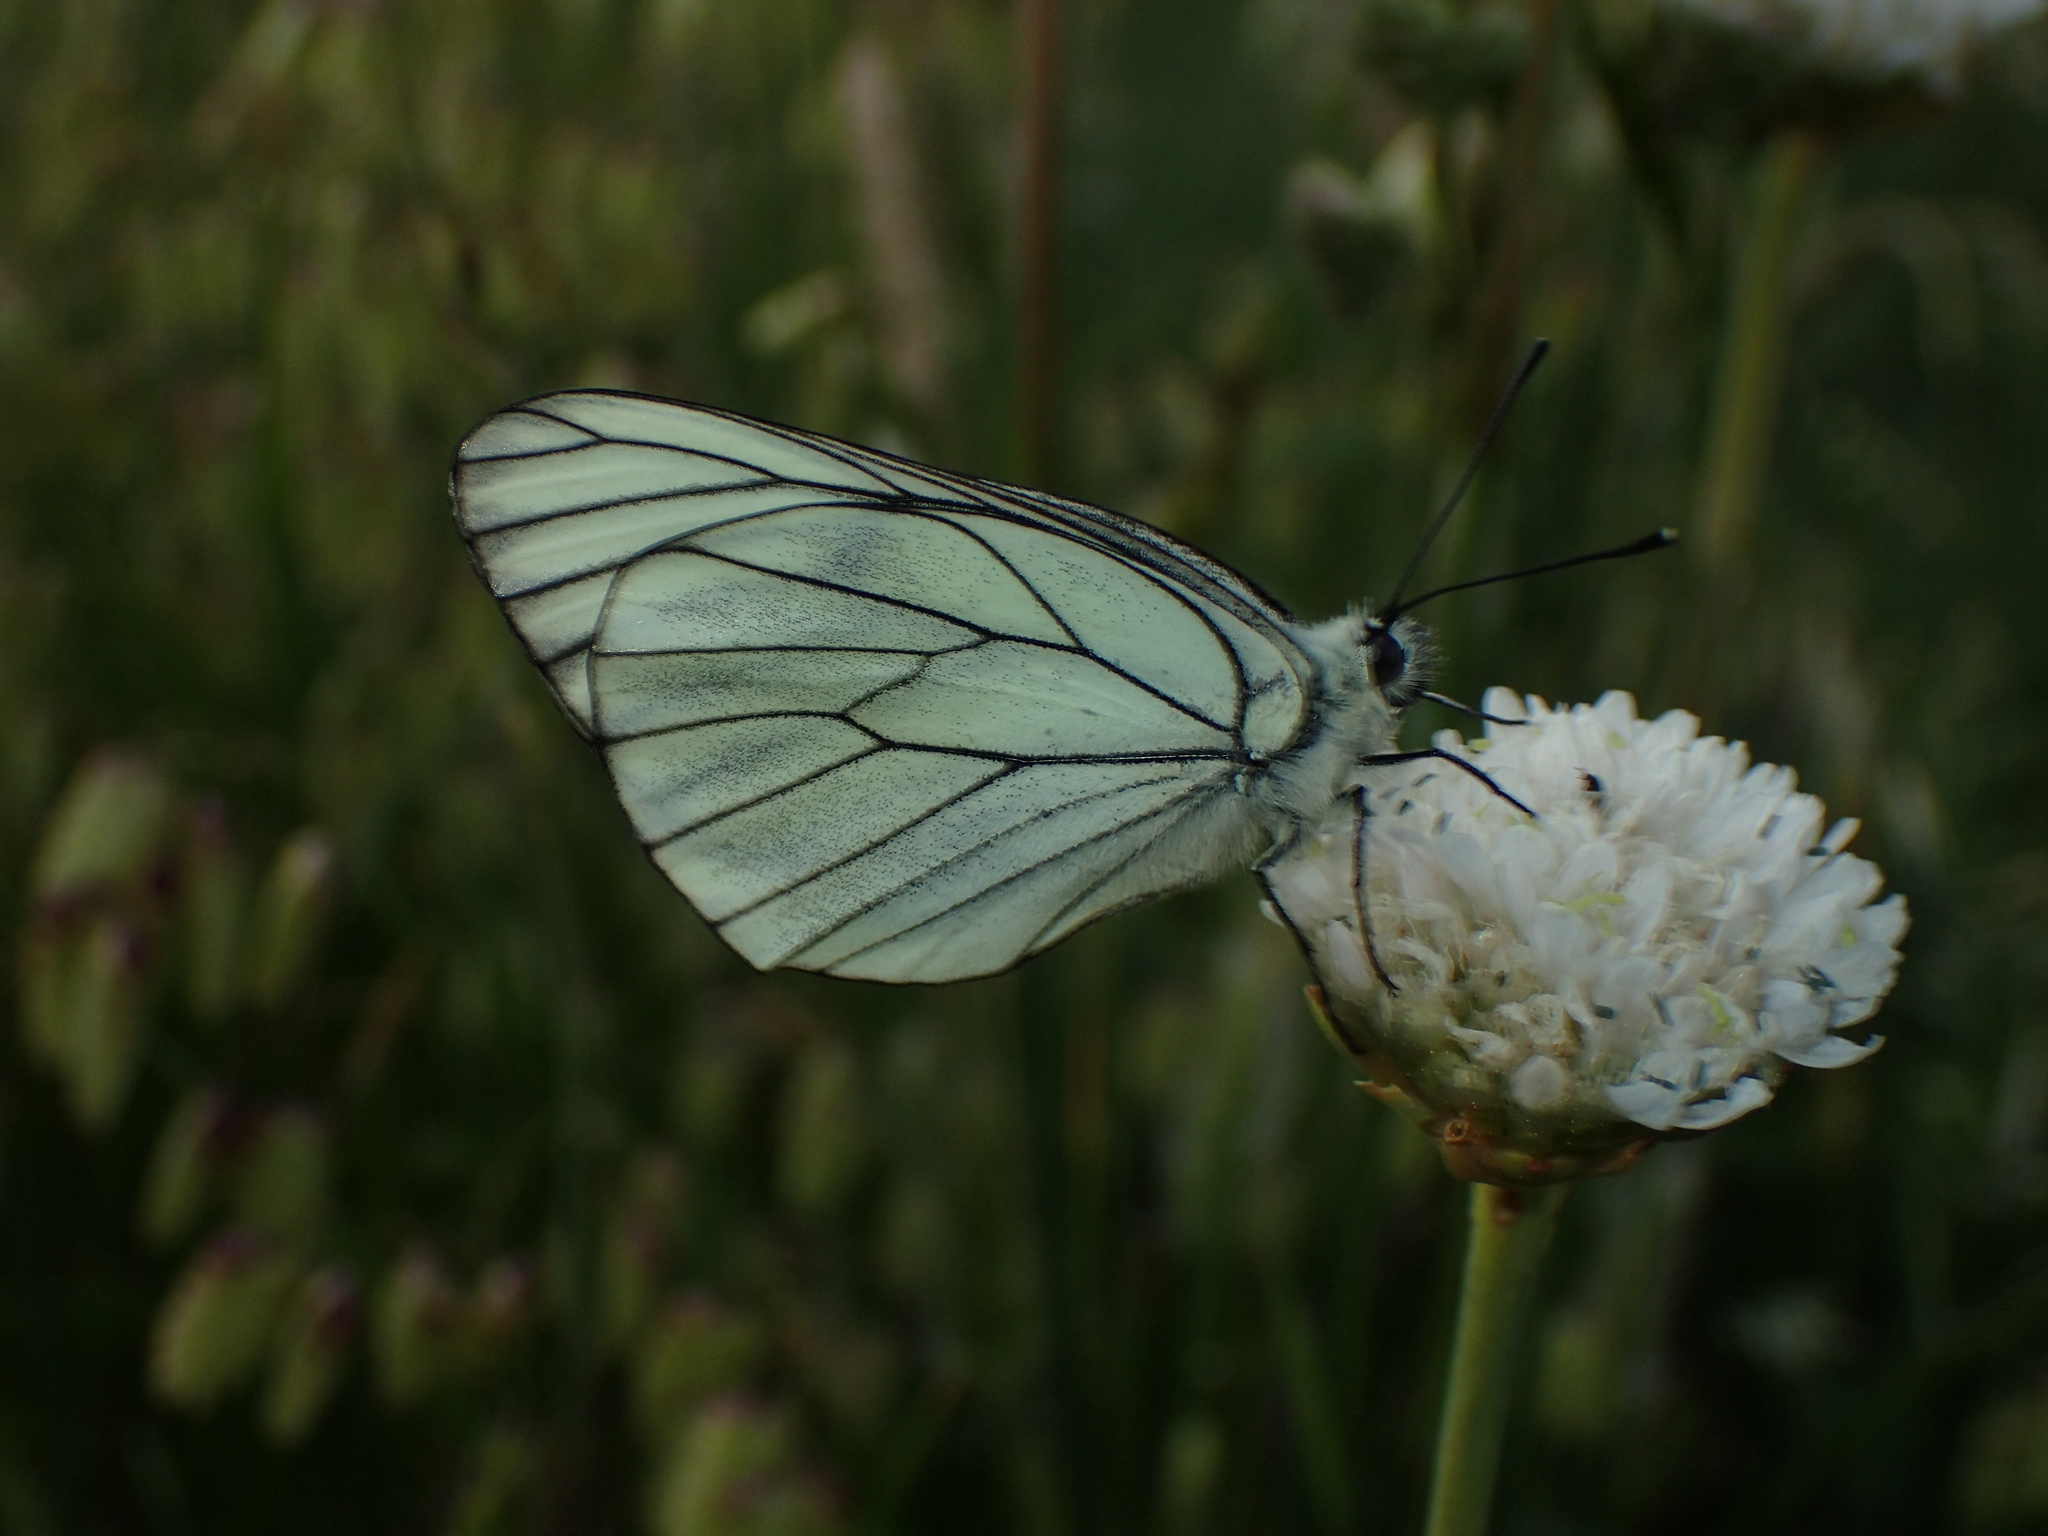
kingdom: Animalia
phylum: Arthropoda
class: Insecta
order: Lepidoptera
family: Pieridae
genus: Aporia
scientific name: Aporia crataegi
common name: Black-veined white
